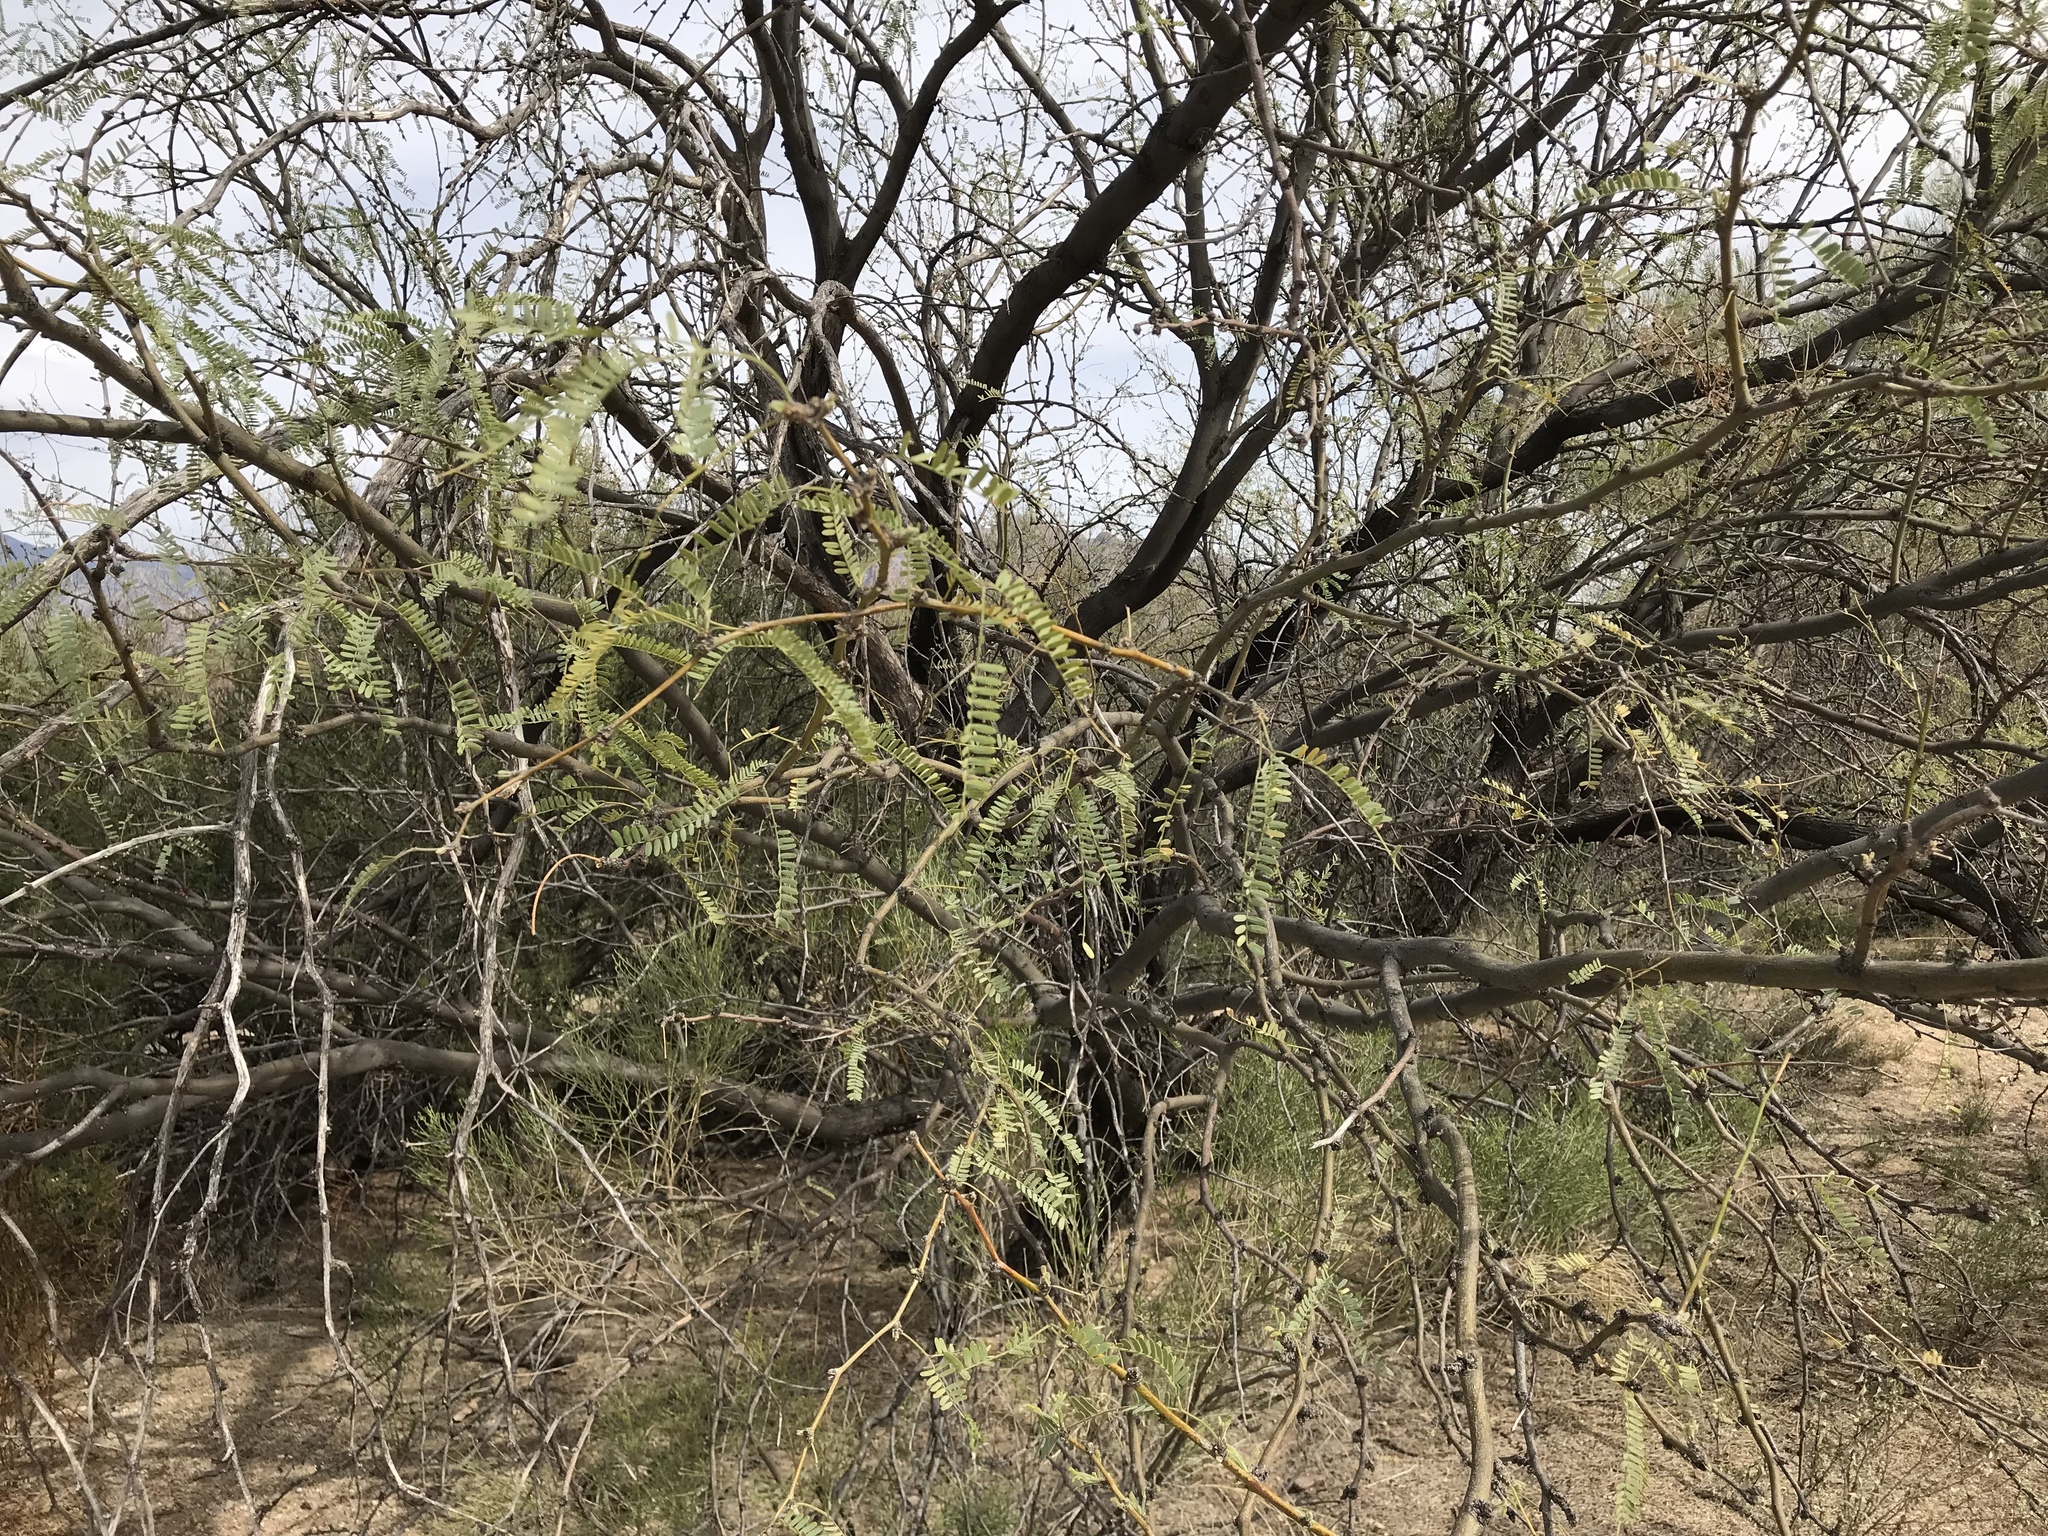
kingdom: Plantae
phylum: Tracheophyta
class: Magnoliopsida
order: Fabales
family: Fabaceae
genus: Prosopis
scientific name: Prosopis velutina
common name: Velvet mesquite
